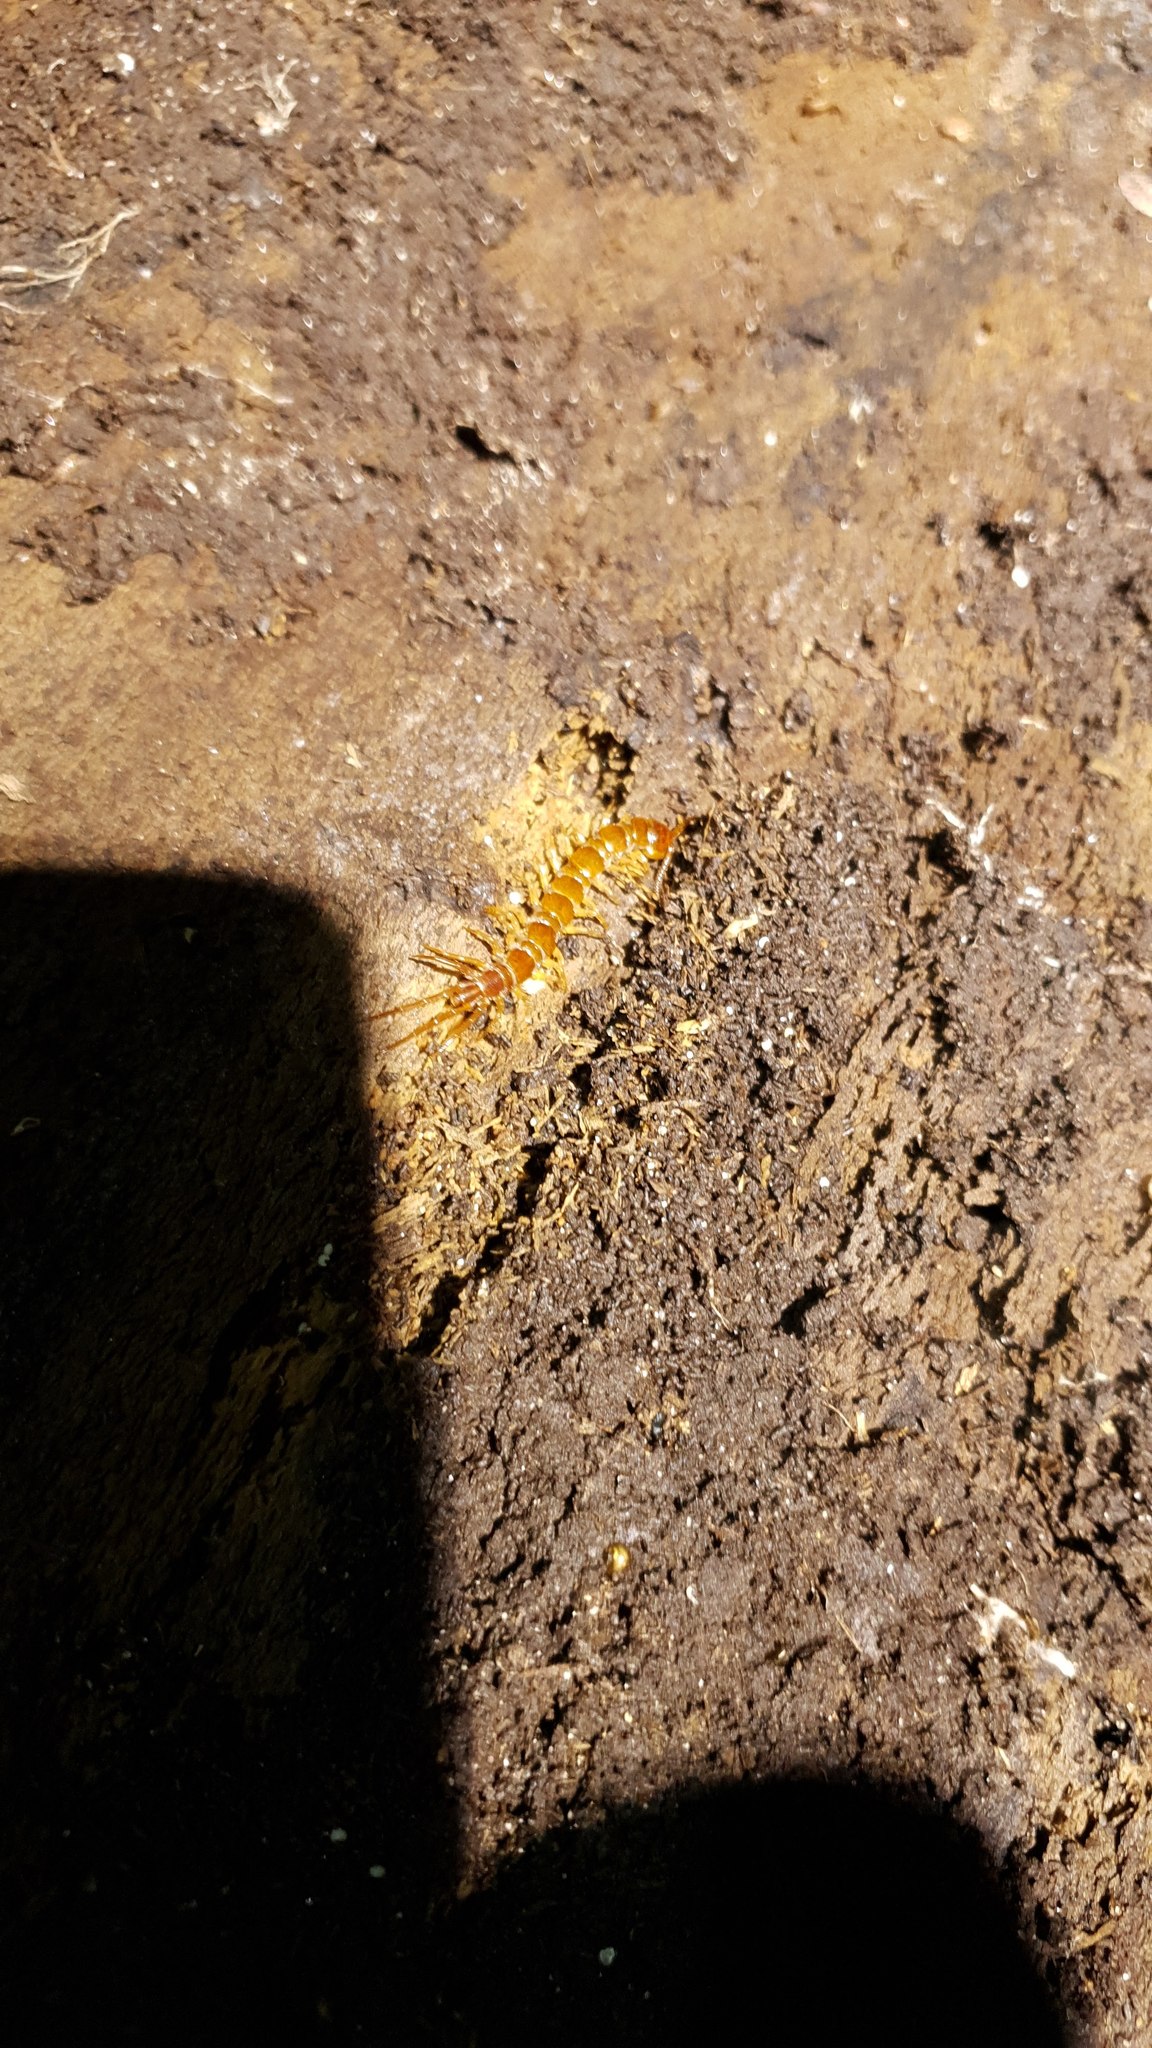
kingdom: Animalia
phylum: Arthropoda
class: Chilopoda
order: Lithobiomorpha
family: Lithobiidae
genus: Lithobius
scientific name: Lithobius forficatus
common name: Centipede
